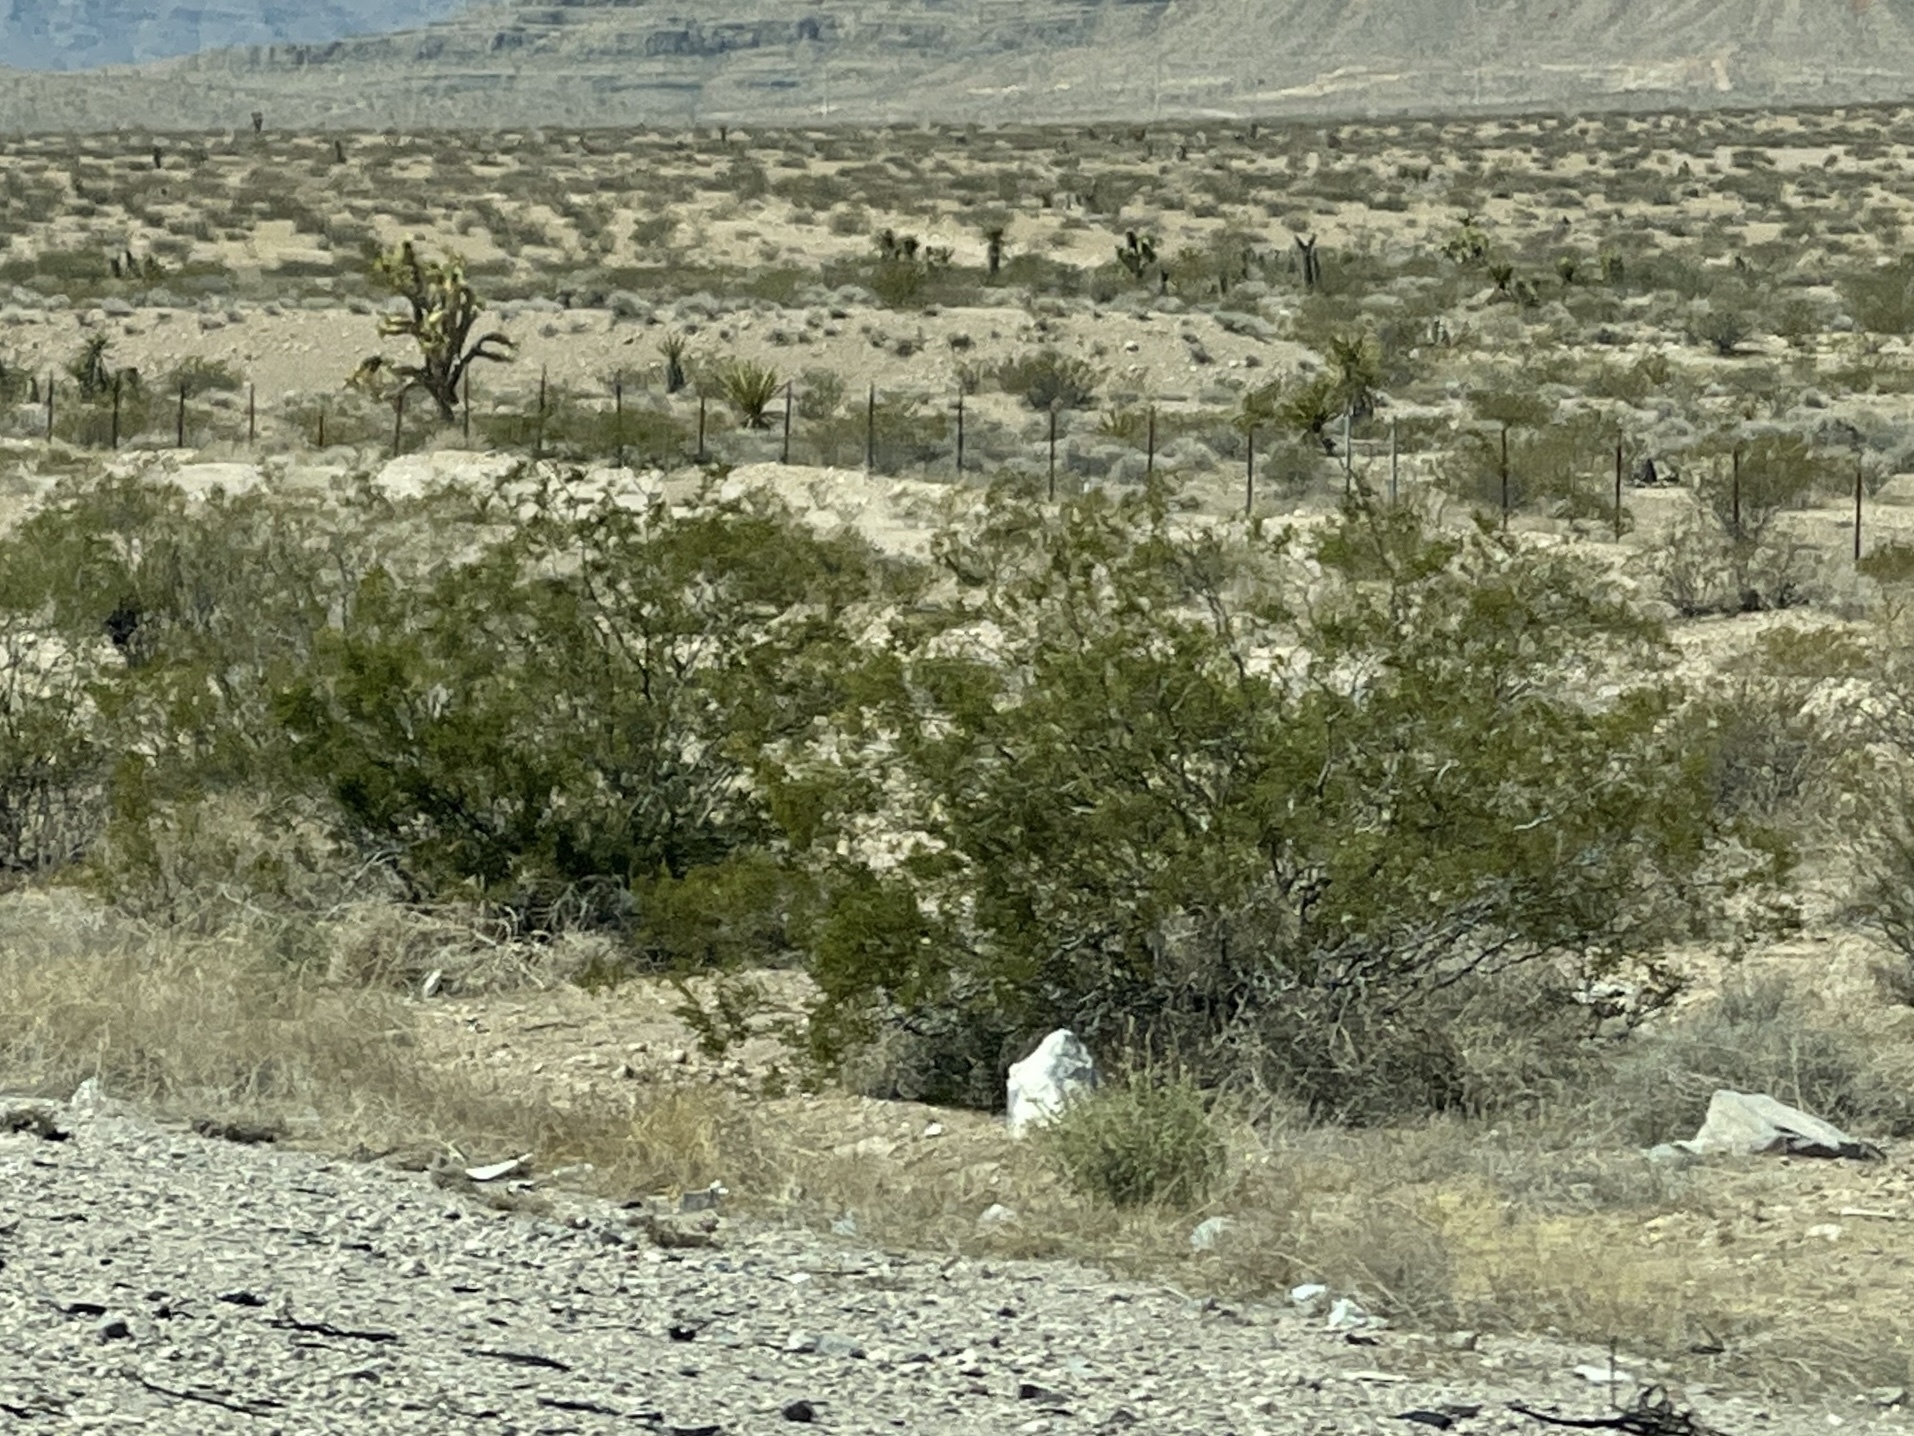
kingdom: Plantae
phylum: Tracheophyta
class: Magnoliopsida
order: Zygophyllales
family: Zygophyllaceae
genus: Larrea
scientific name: Larrea tridentata
